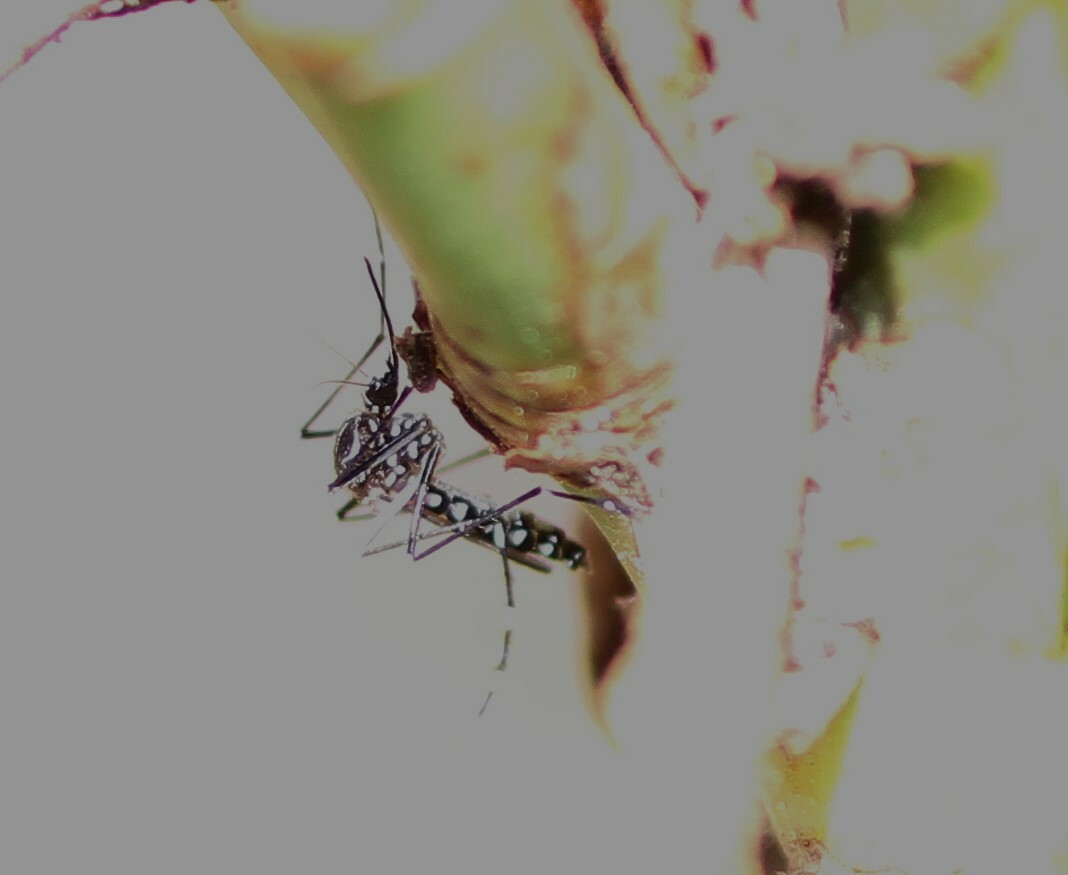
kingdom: Animalia
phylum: Arthropoda
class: Insecta
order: Diptera
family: Culicidae
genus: Aedes
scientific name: Aedes aegypti
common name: Yellow fever mosquito
